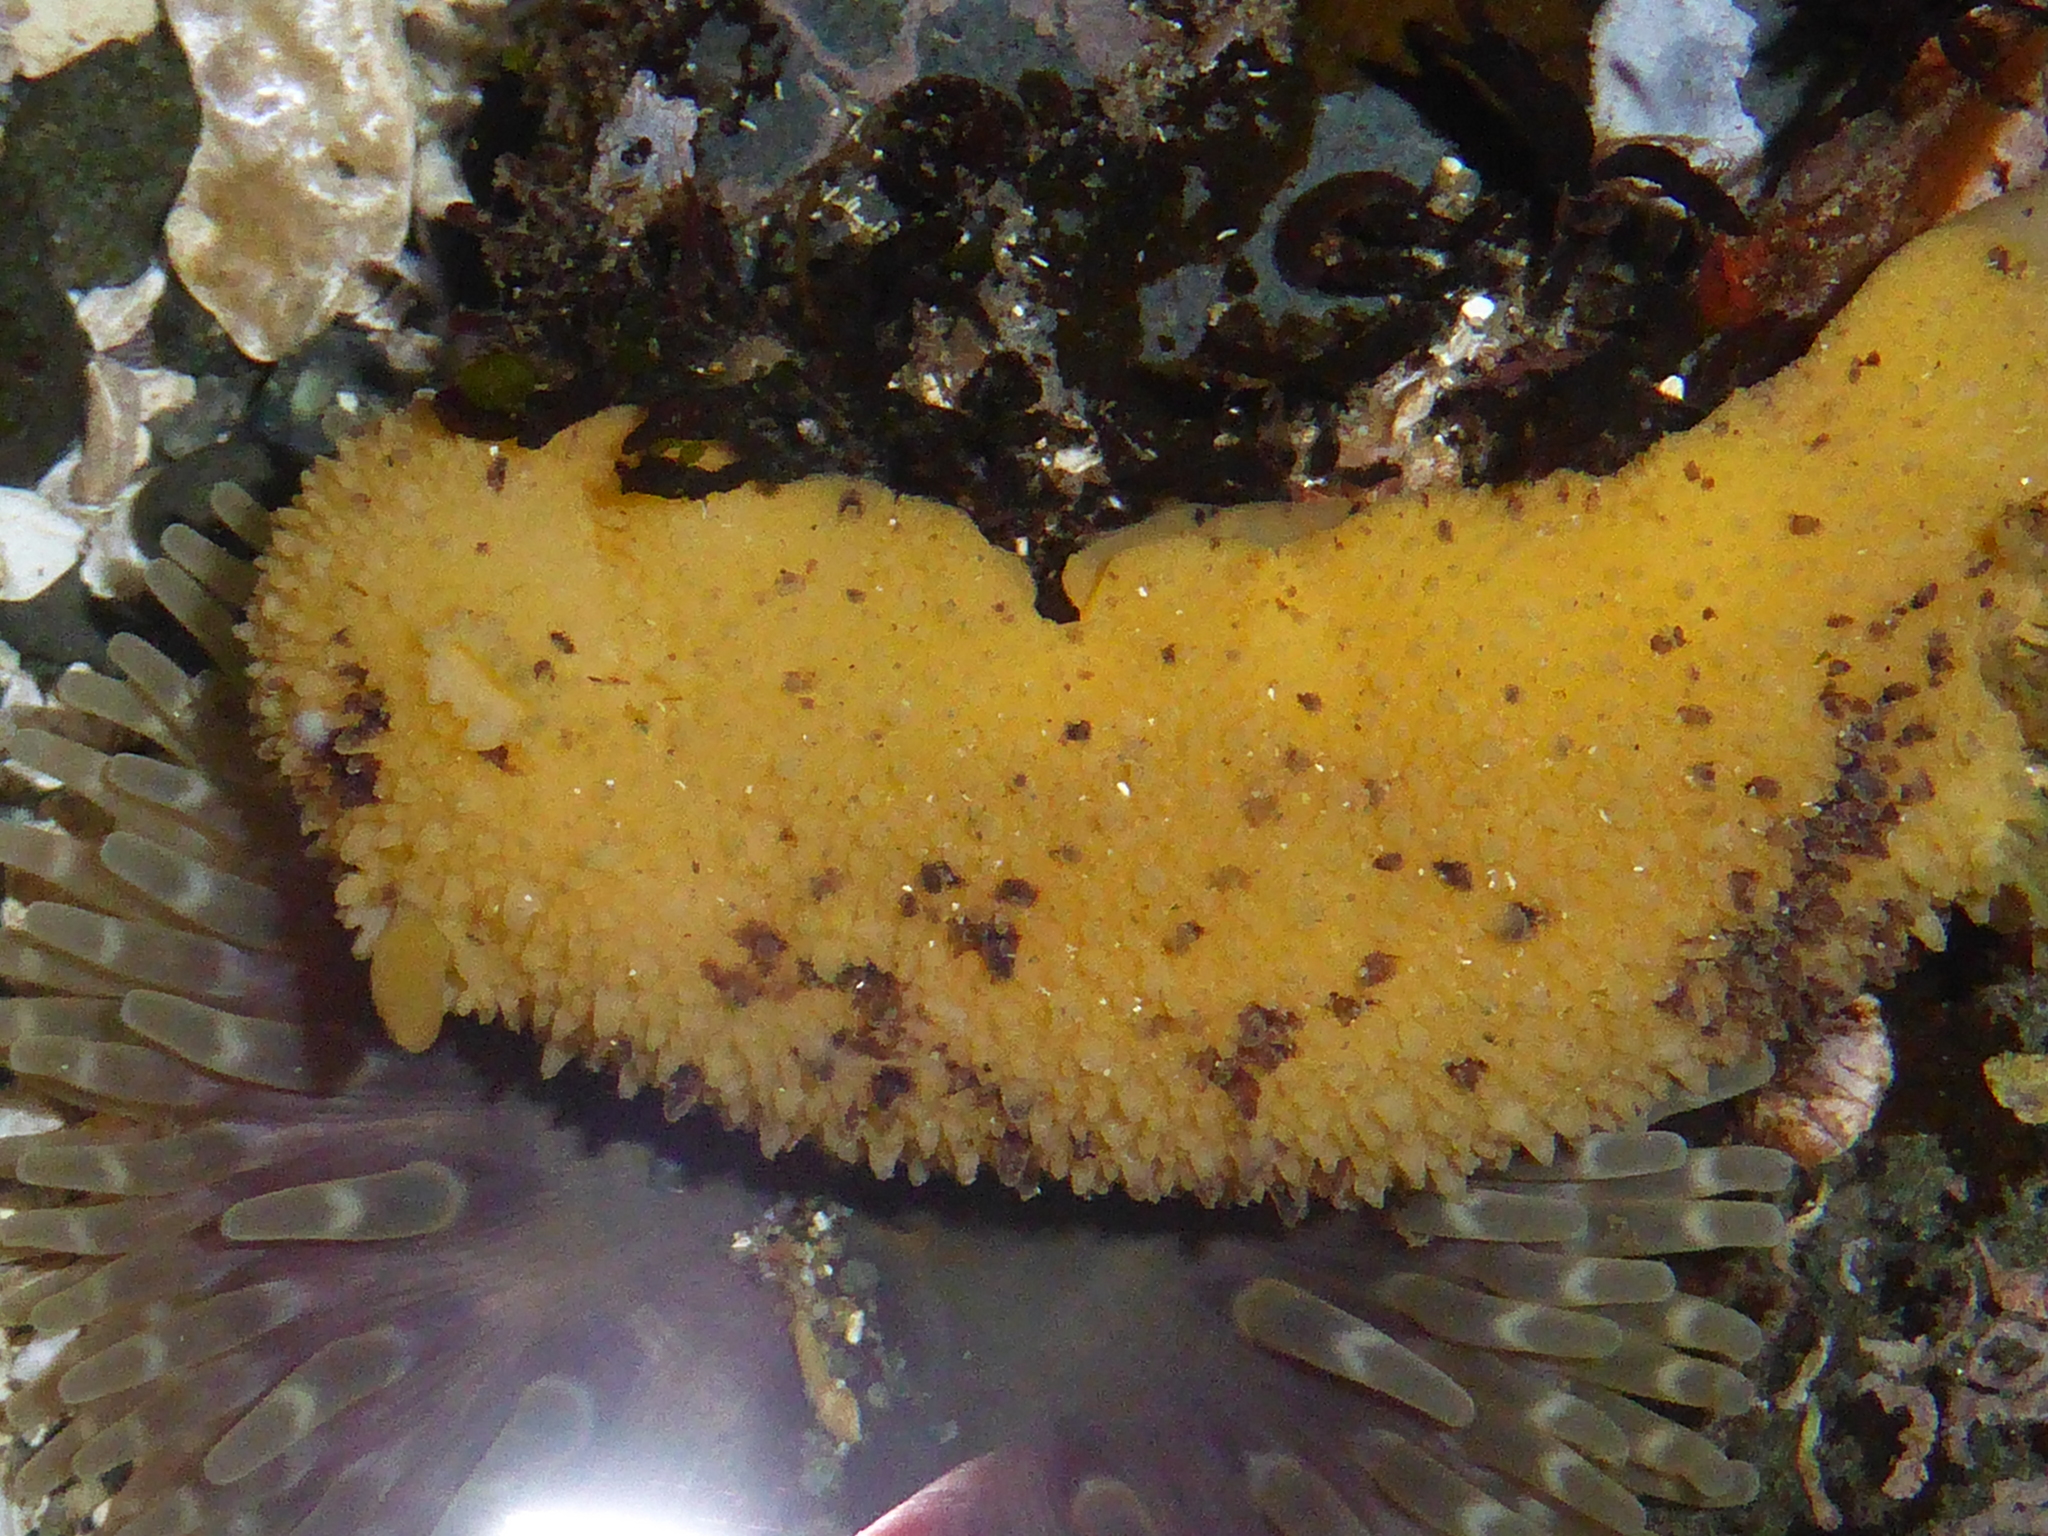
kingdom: Animalia
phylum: Mollusca
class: Gastropoda
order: Nudibranchia
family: Dorididae
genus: Doris
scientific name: Doris montereyensis
